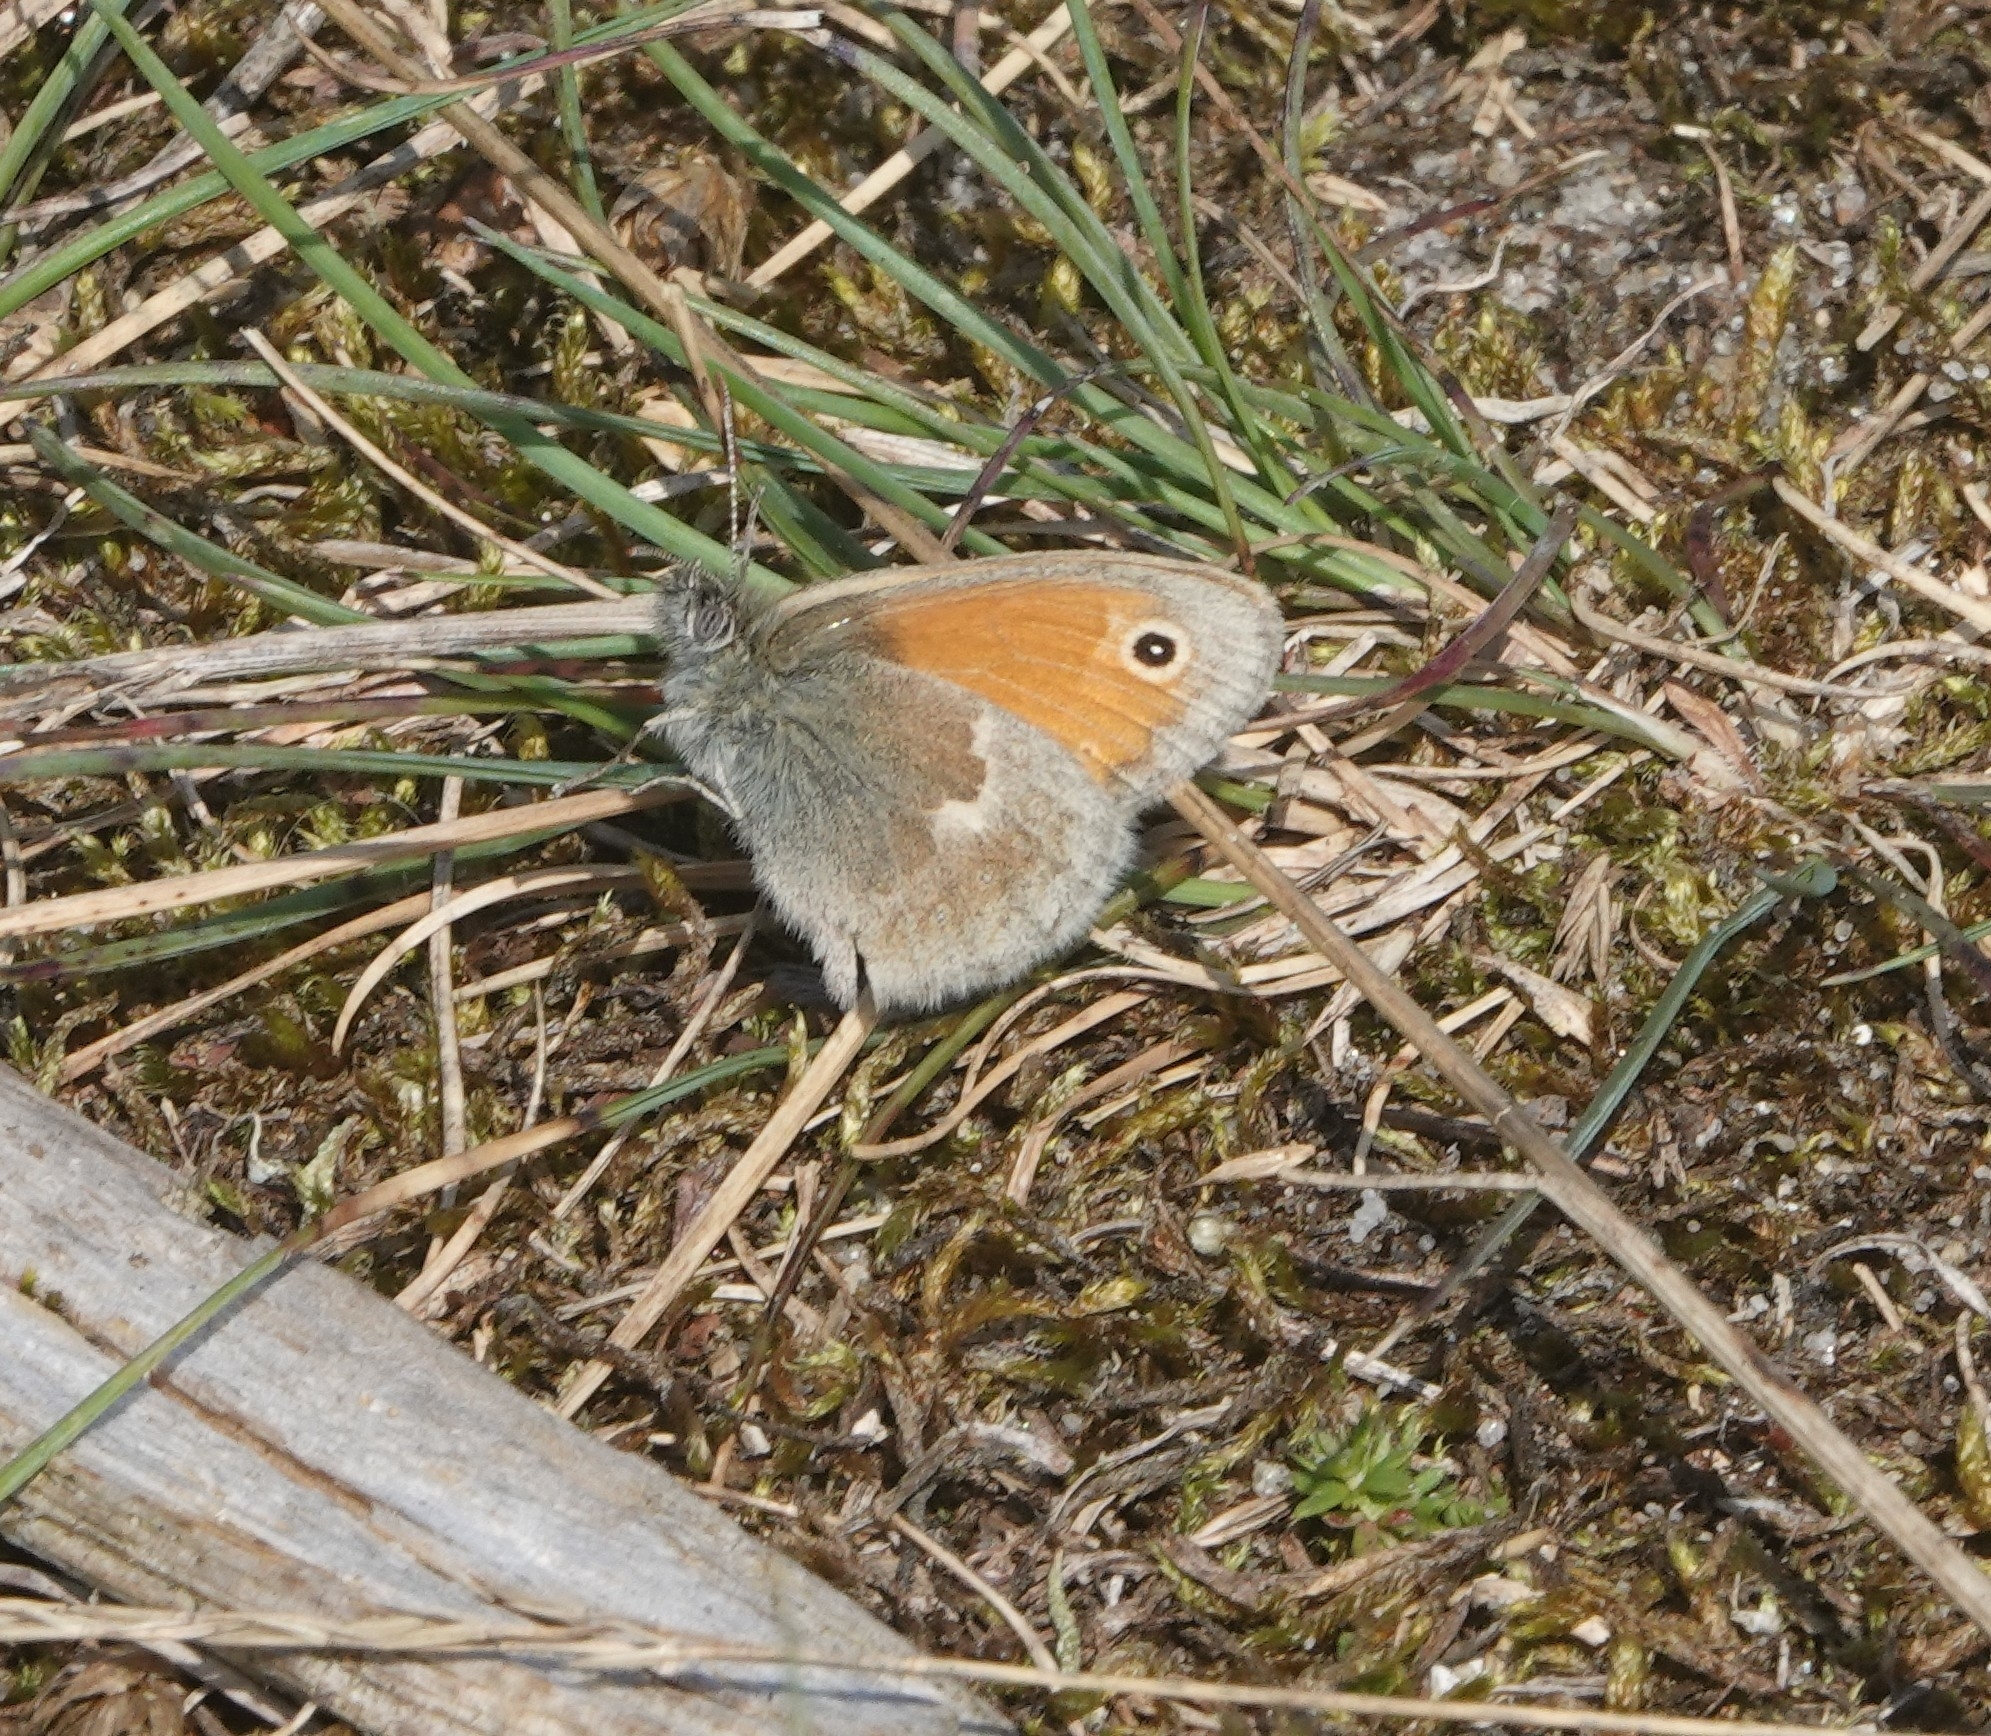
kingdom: Animalia
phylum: Arthropoda
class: Insecta
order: Lepidoptera
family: Nymphalidae
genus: Coenonympha
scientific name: Coenonympha pamphilus
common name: Small heath
